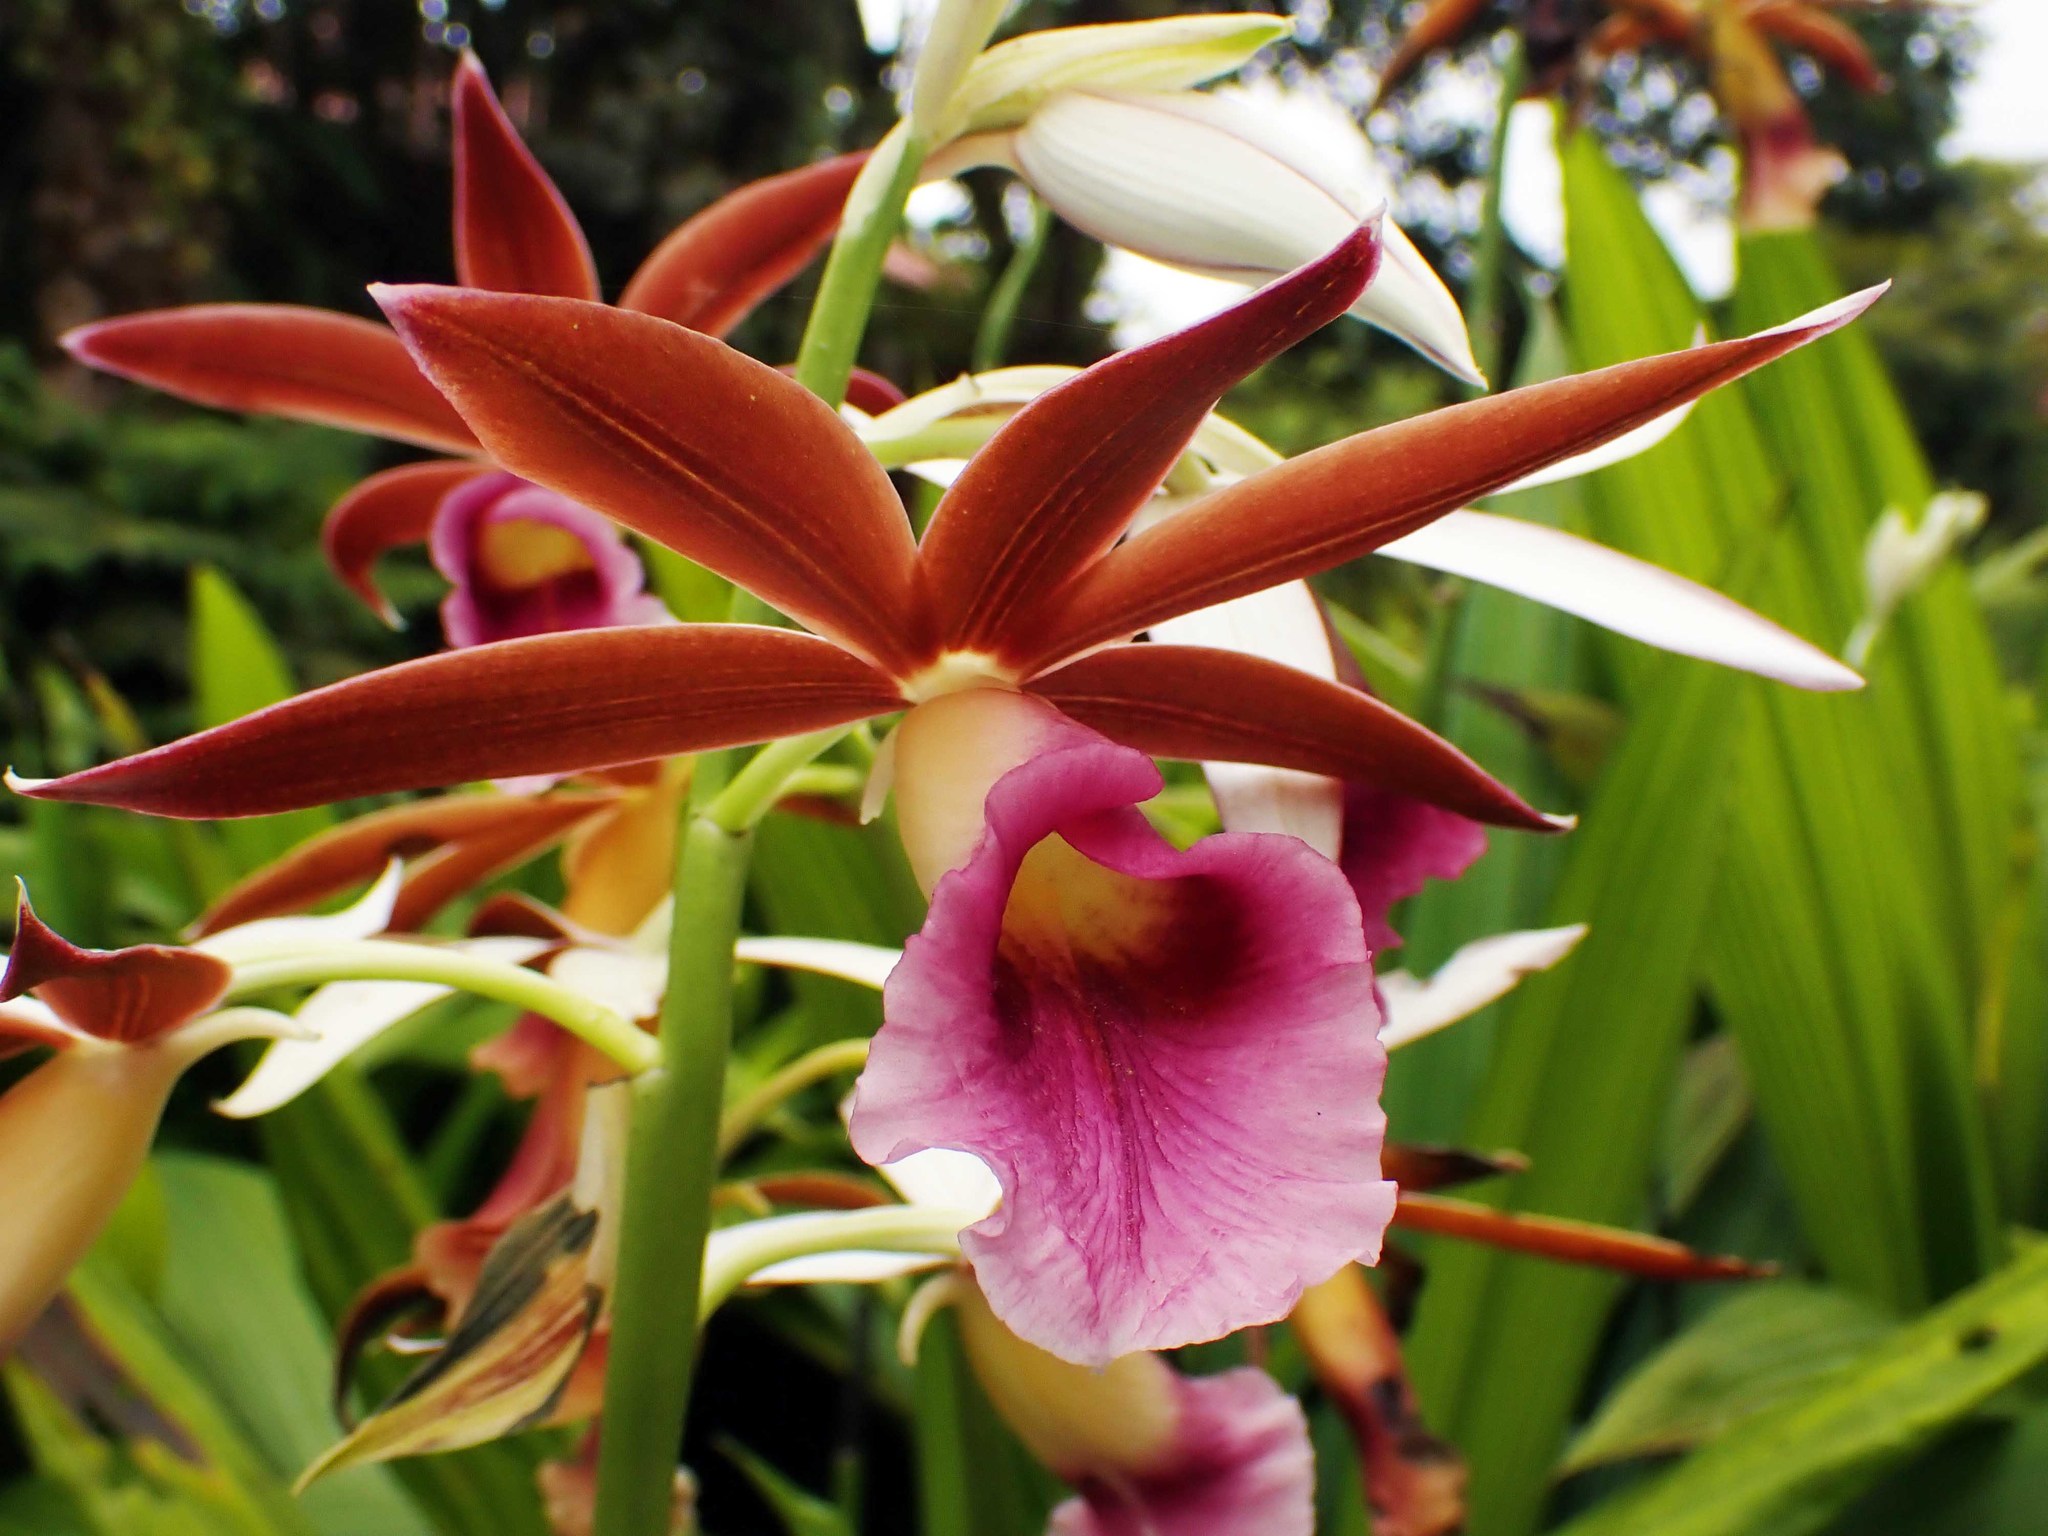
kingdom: Plantae
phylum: Tracheophyta
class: Liliopsida
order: Asparagales
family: Orchidaceae
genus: Calanthe
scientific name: Calanthe tankervilleae
